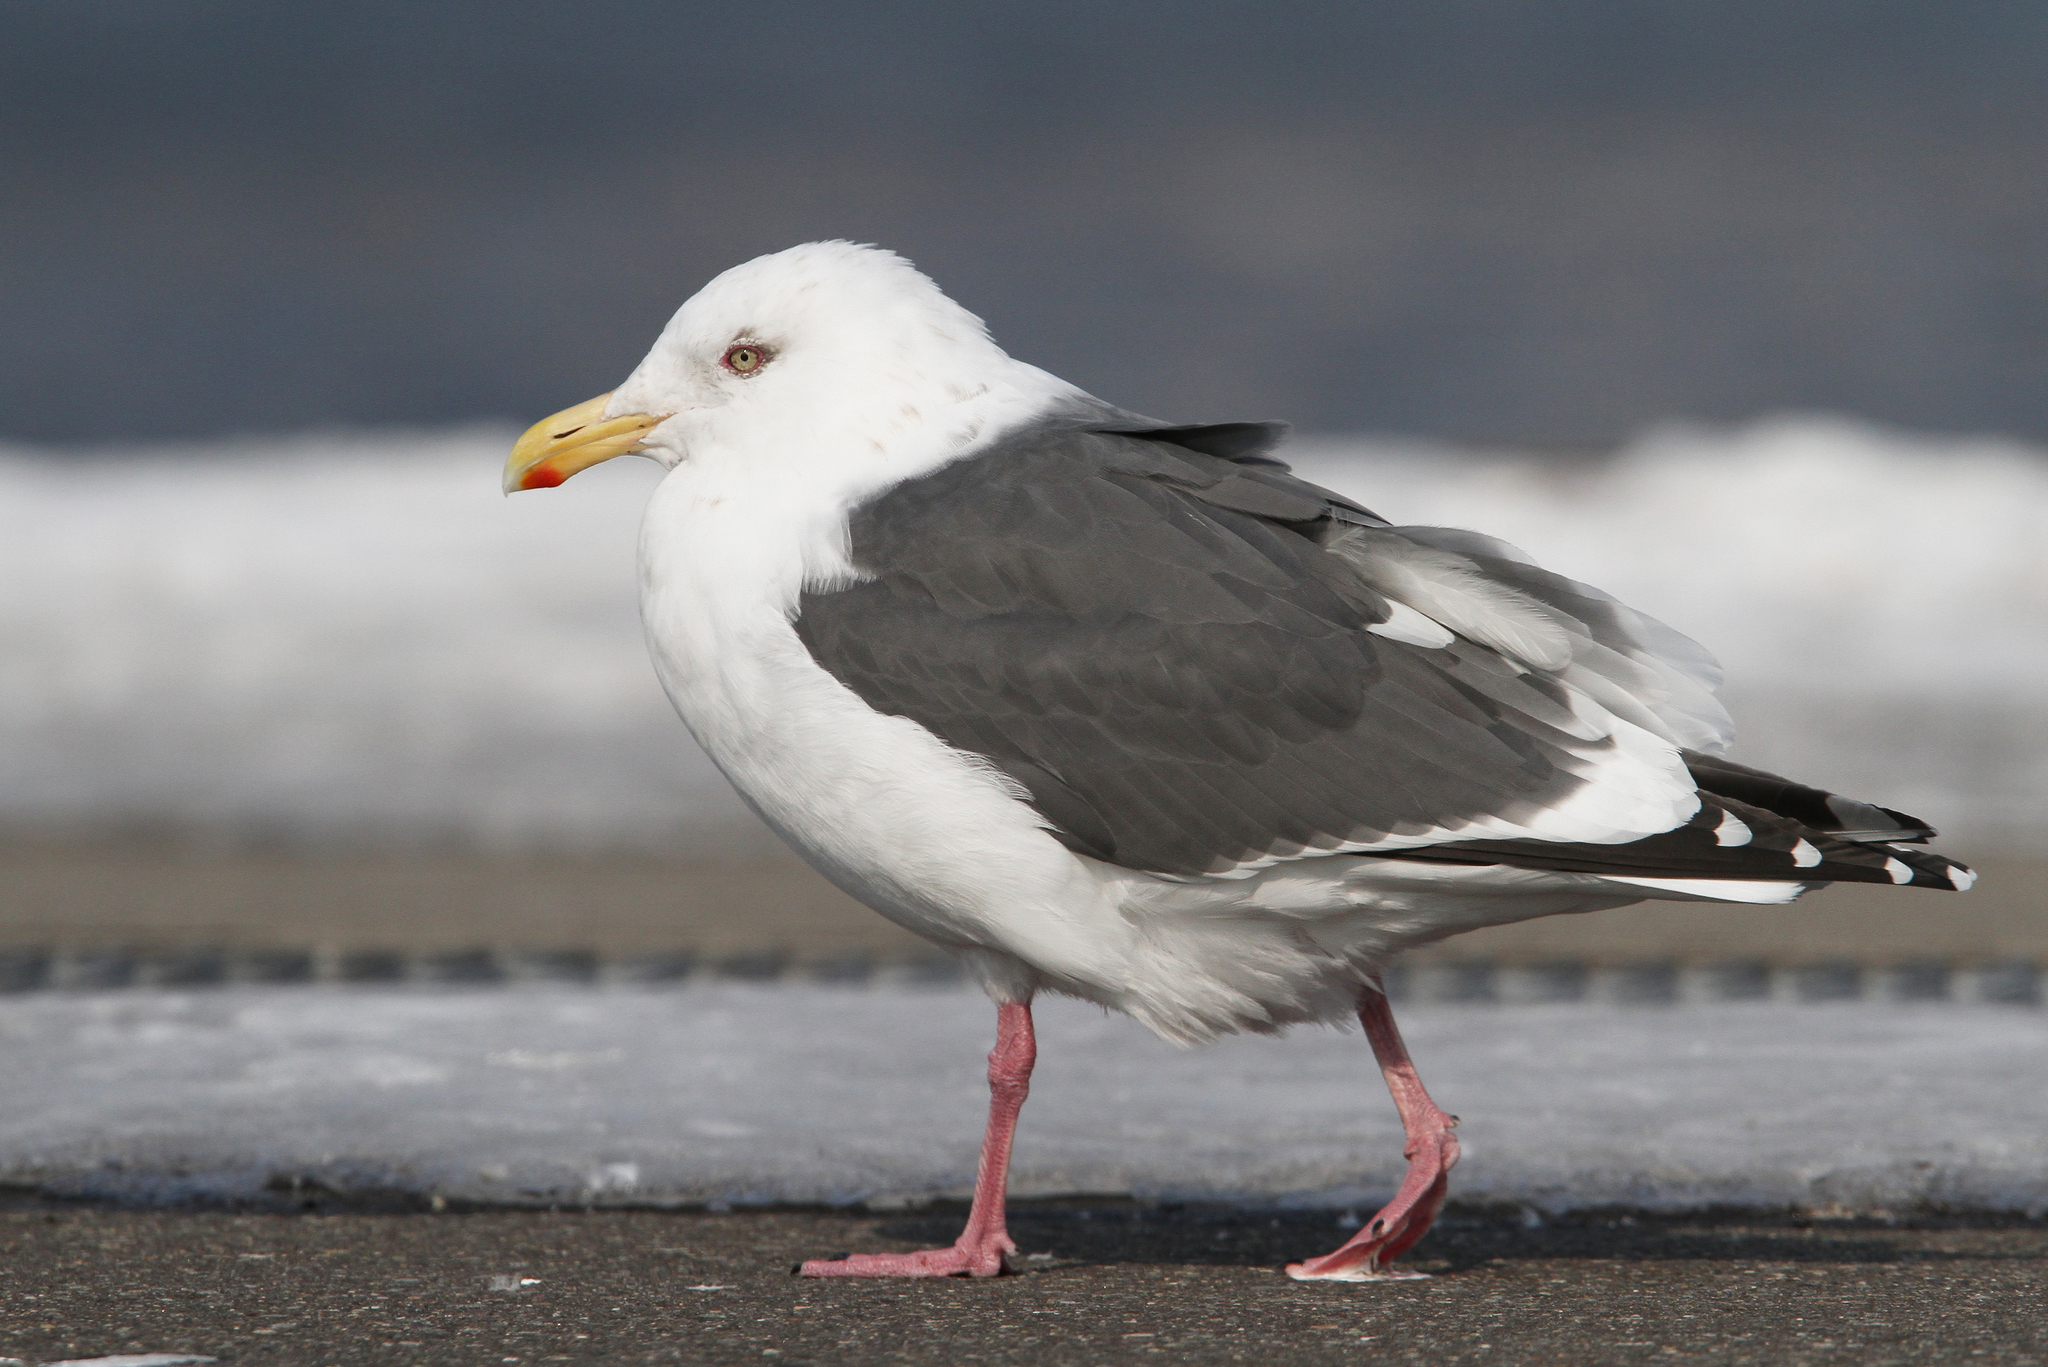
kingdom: Animalia
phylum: Chordata
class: Aves
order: Charadriiformes
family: Laridae
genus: Larus
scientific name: Larus schistisagus
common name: Slaty-backed gull
